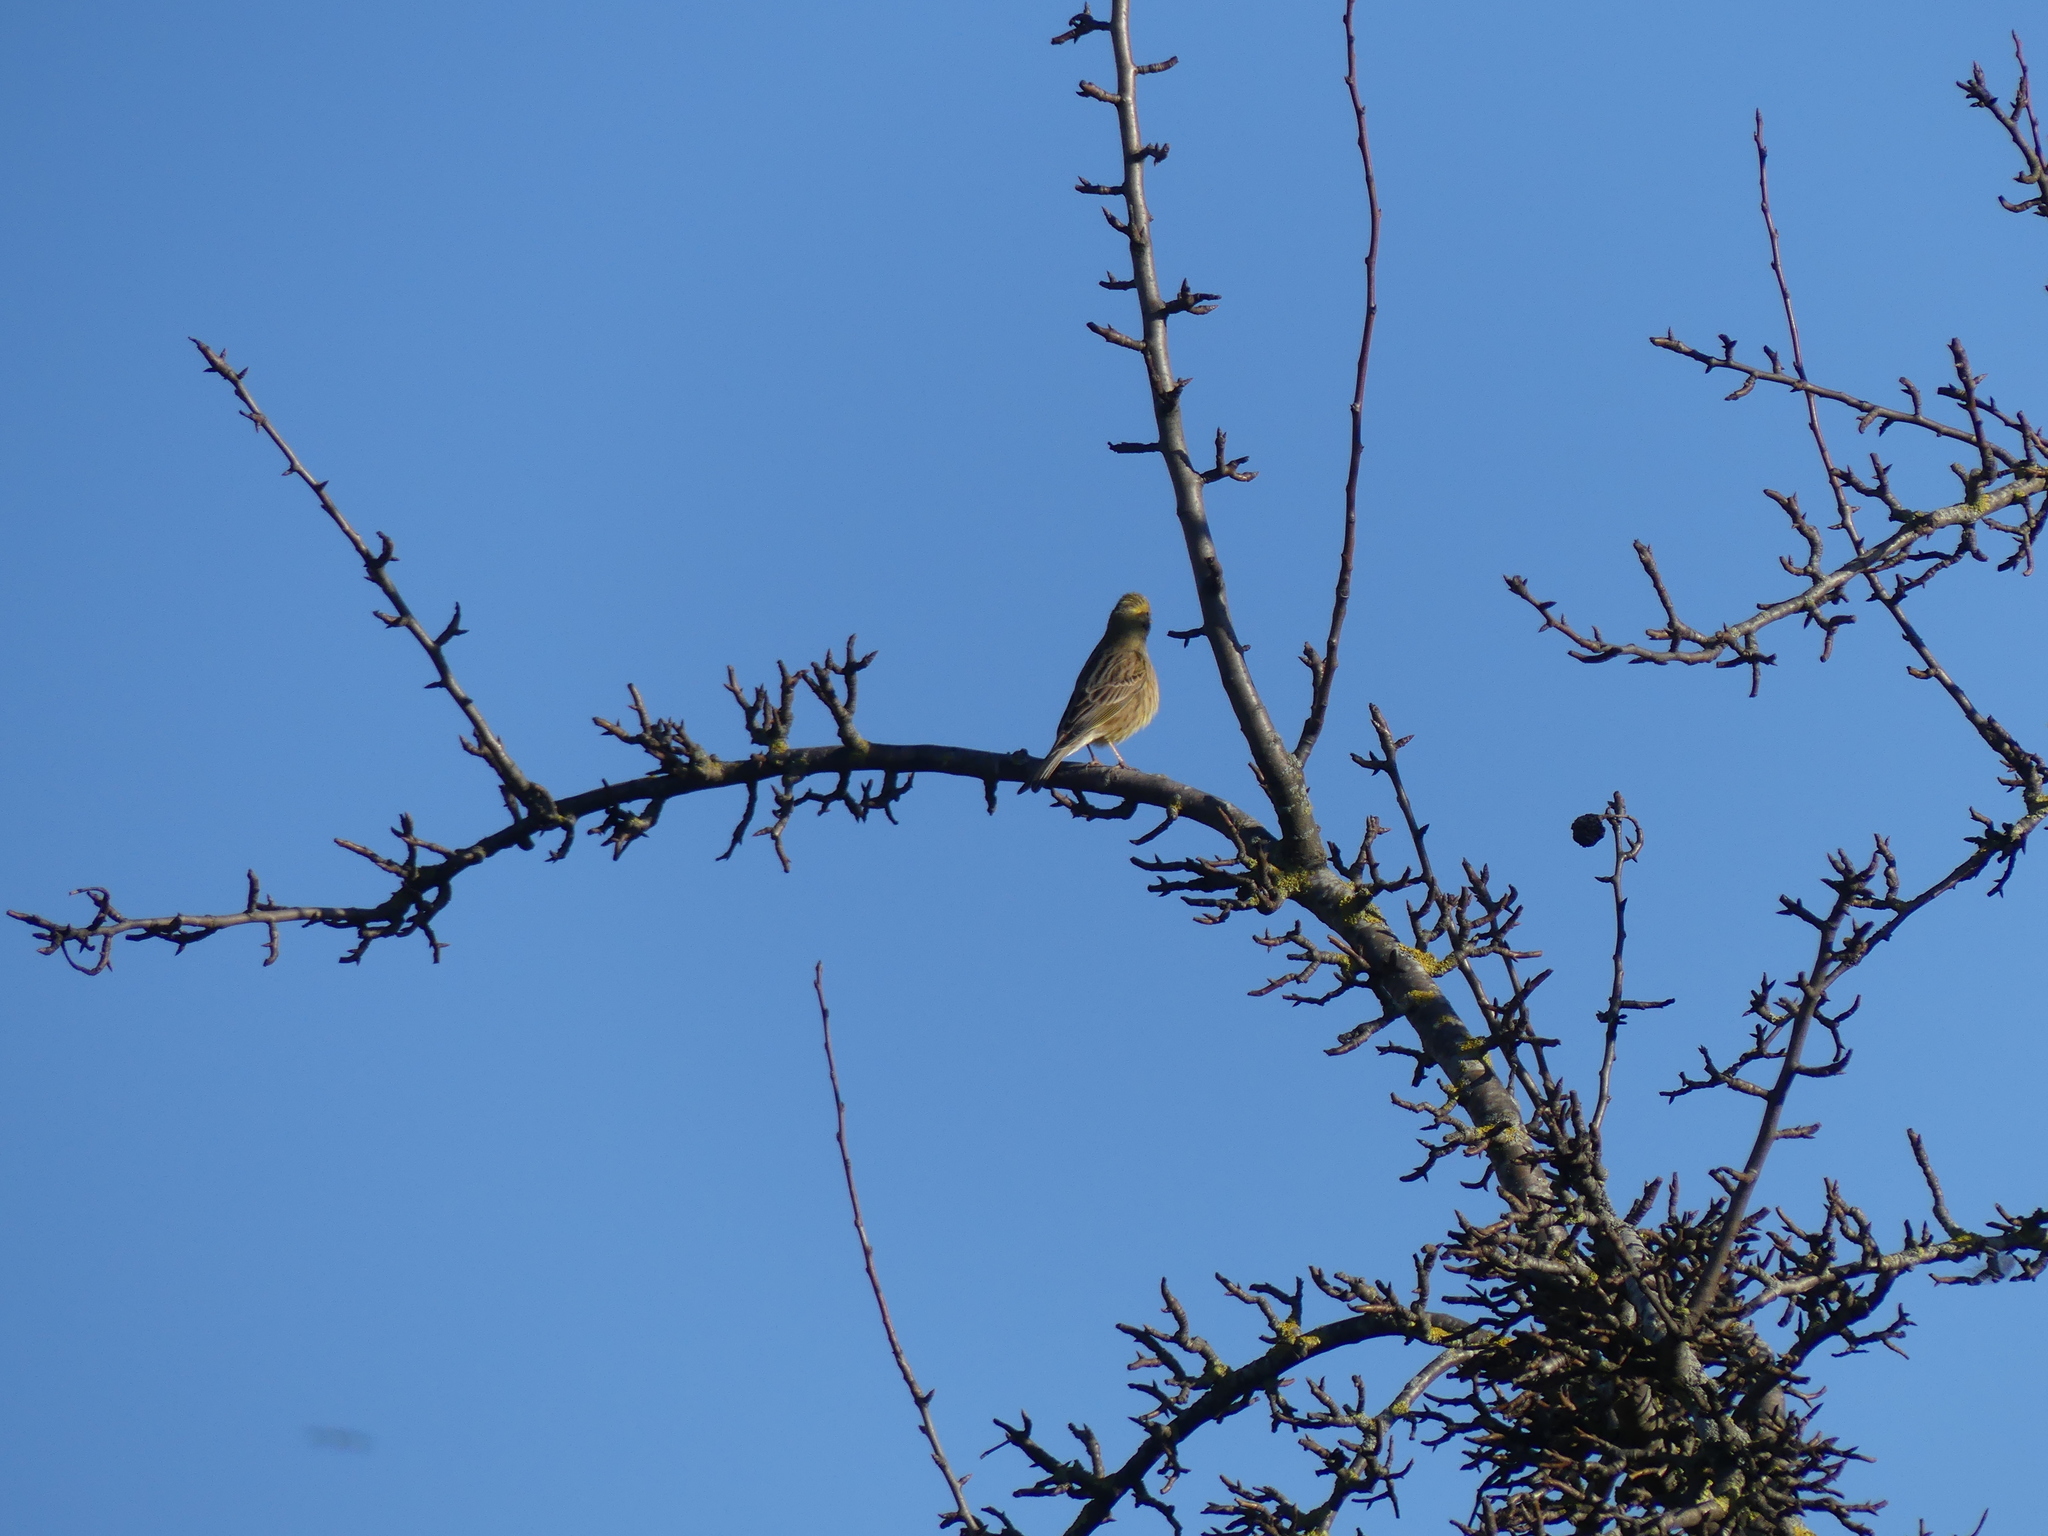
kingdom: Animalia
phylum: Chordata
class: Aves
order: Passeriformes
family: Emberizidae
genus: Emberiza
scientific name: Emberiza citrinella
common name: Yellowhammer
